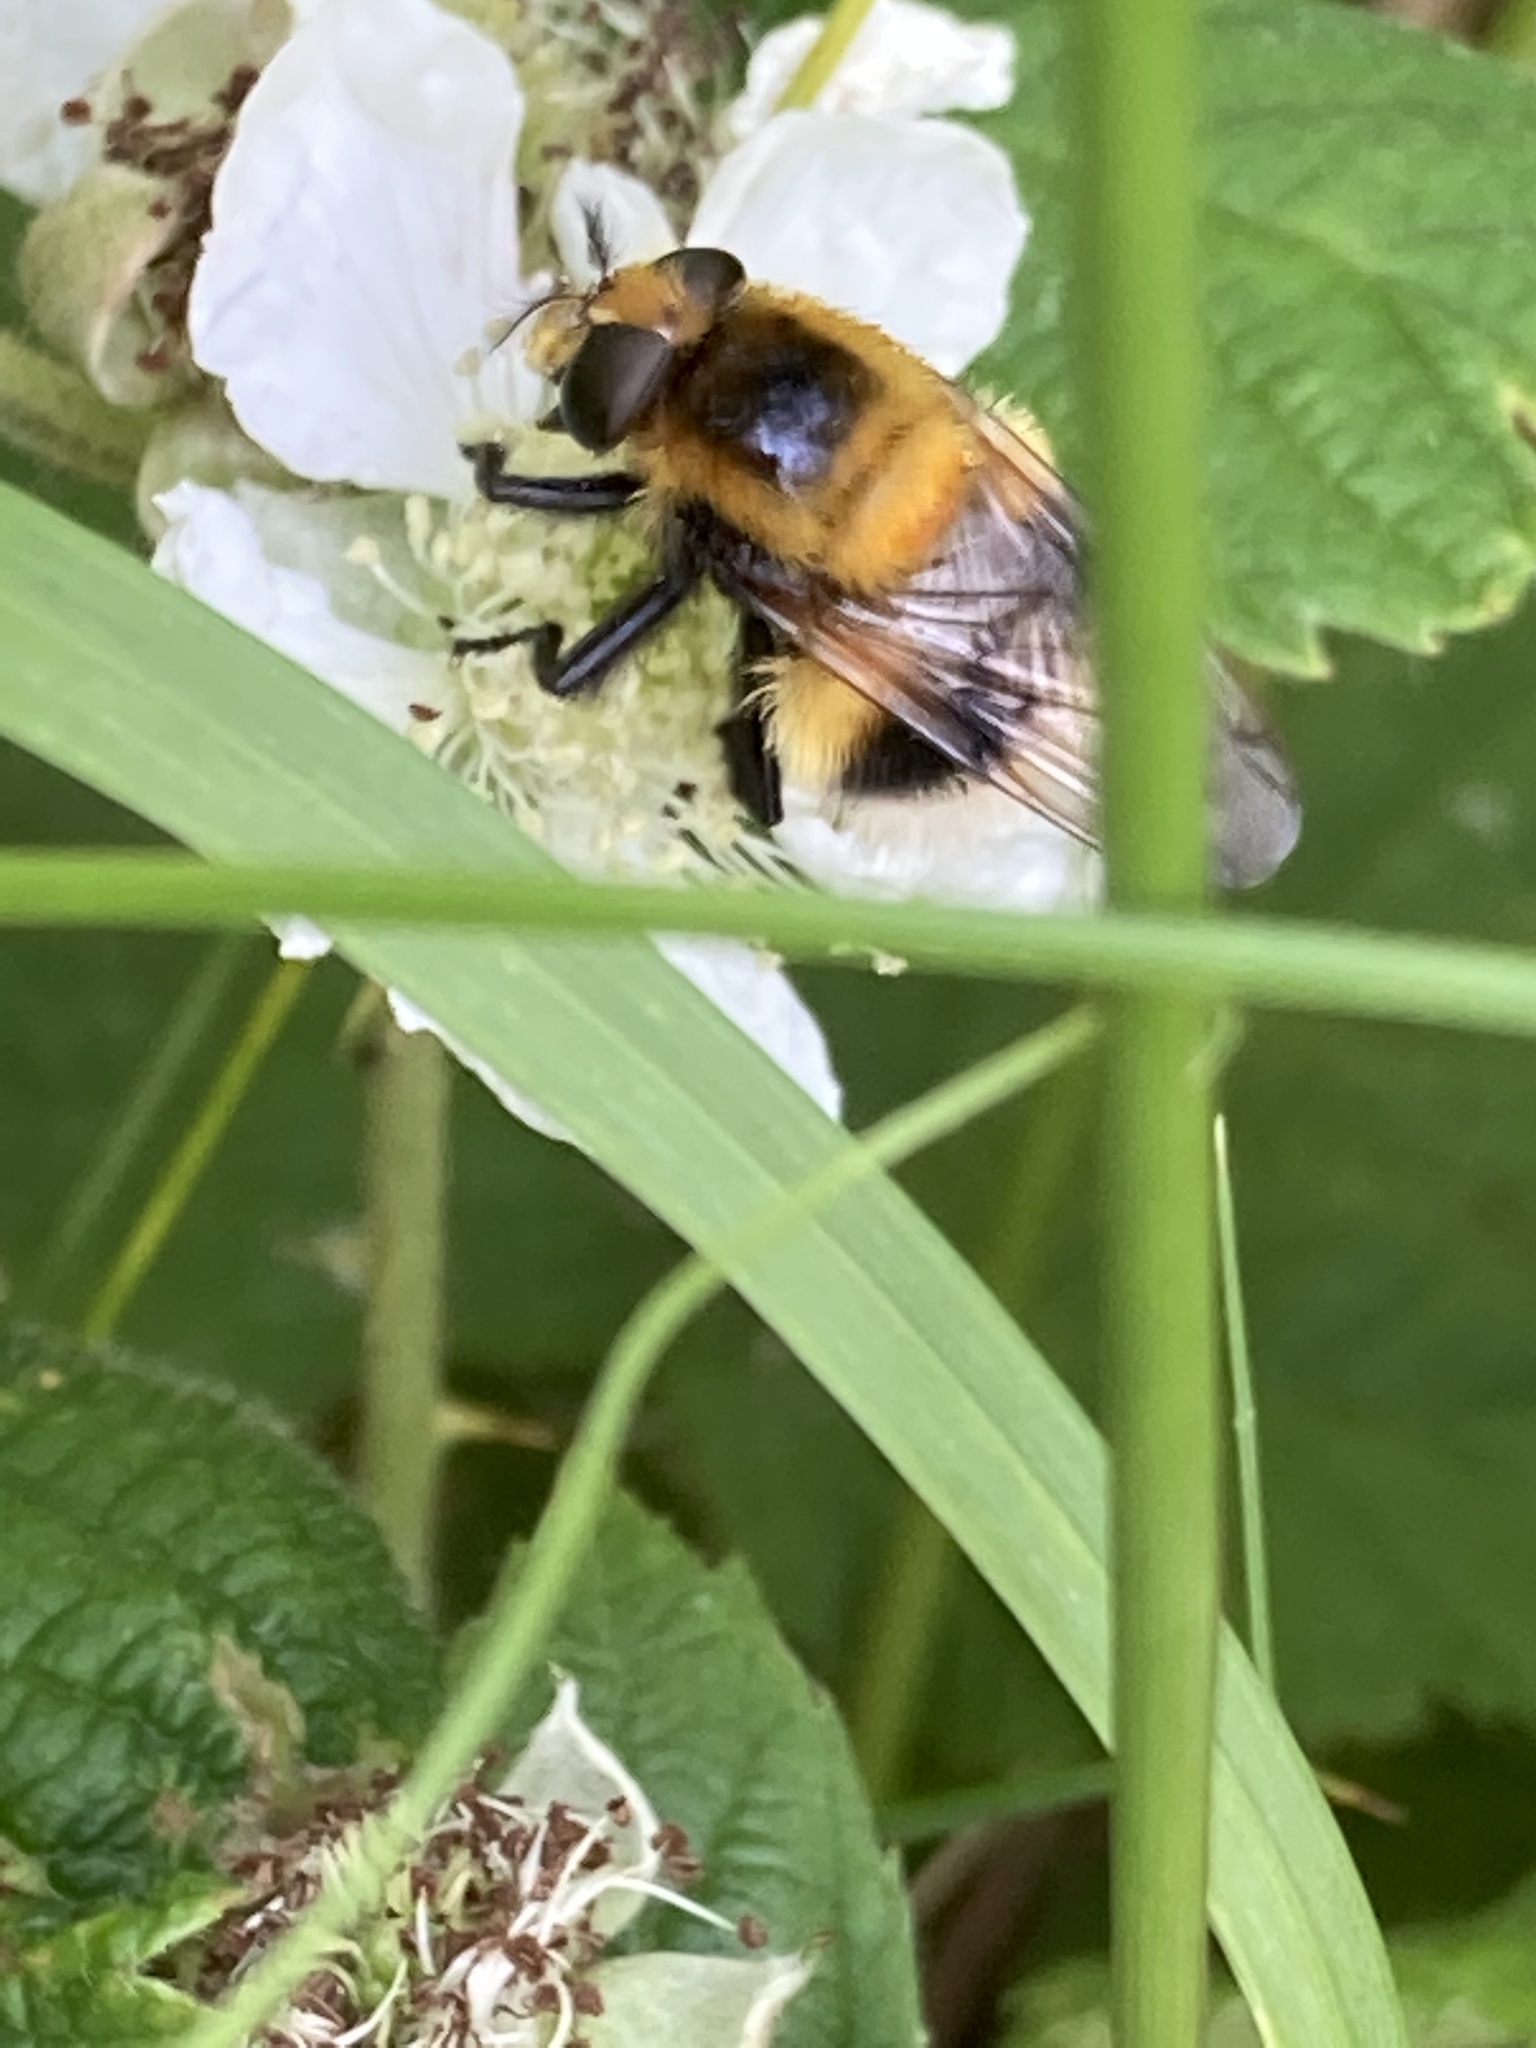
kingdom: Animalia
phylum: Arthropoda
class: Insecta
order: Diptera
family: Syrphidae
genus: Volucella
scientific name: Volucella bombylans
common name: Bumble bee hover fly
